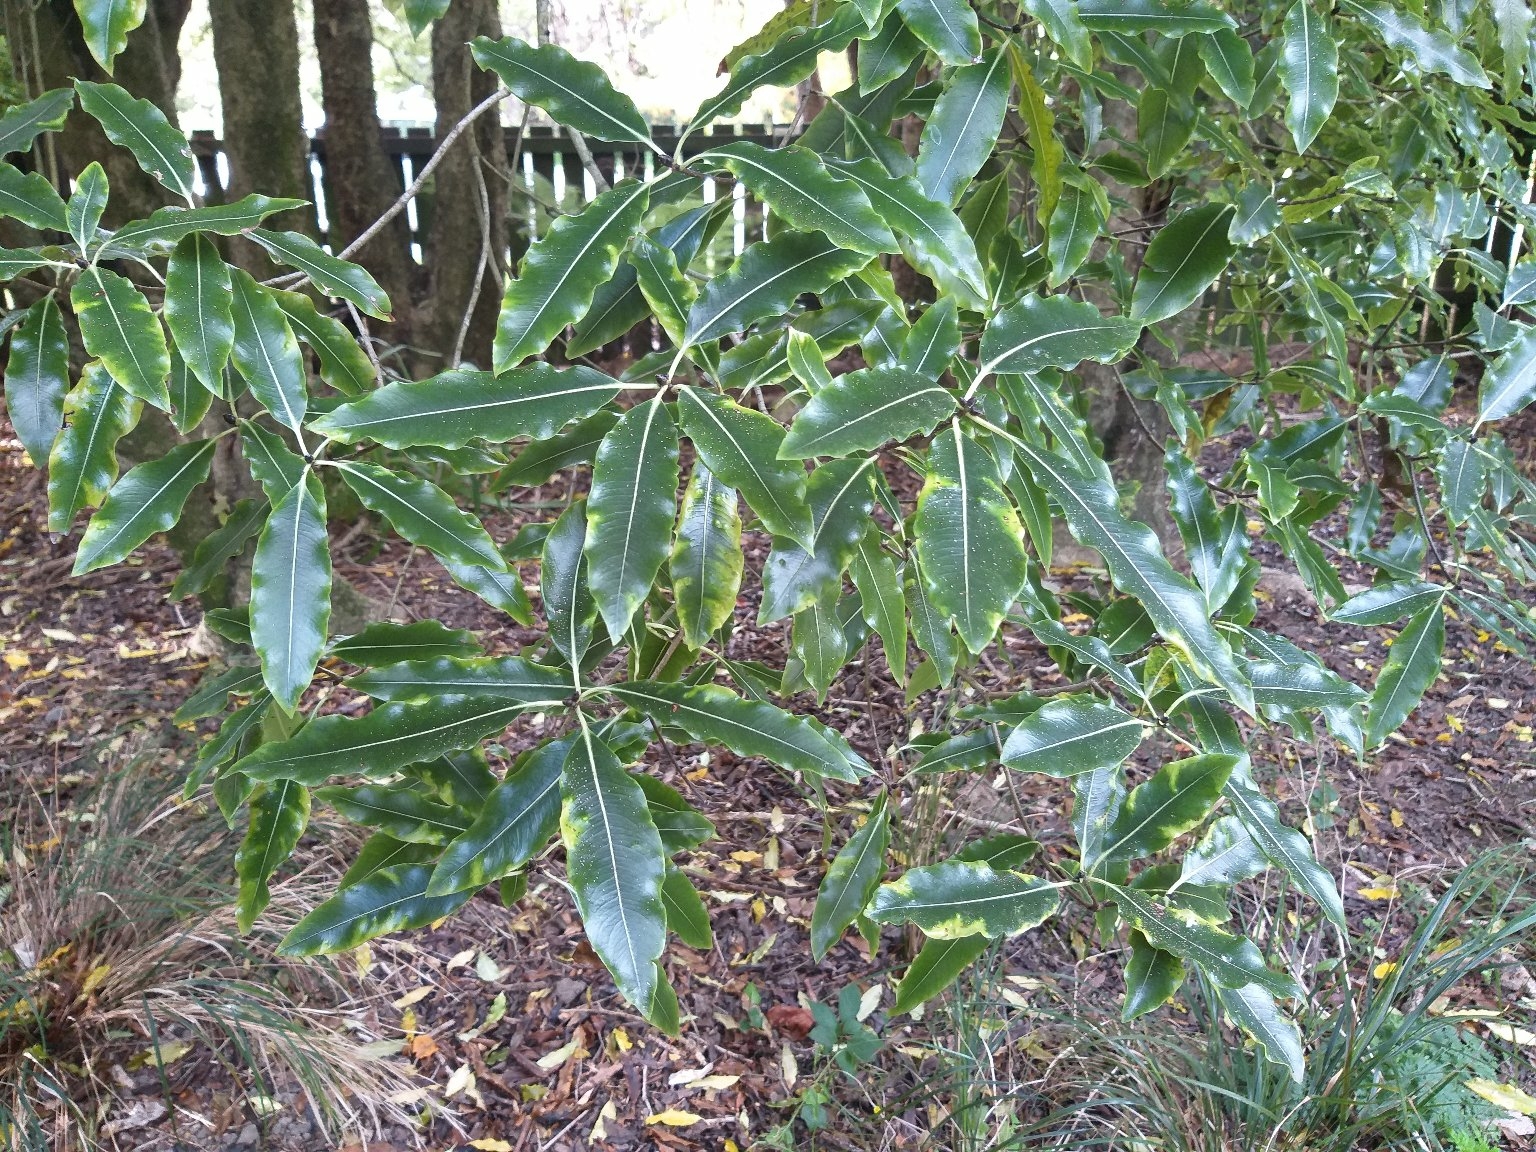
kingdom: Plantae
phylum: Tracheophyta
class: Magnoliopsida
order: Apiales
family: Pittosporaceae
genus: Pittosporum
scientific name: Pittosporum eugenioides
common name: Lemonwood
